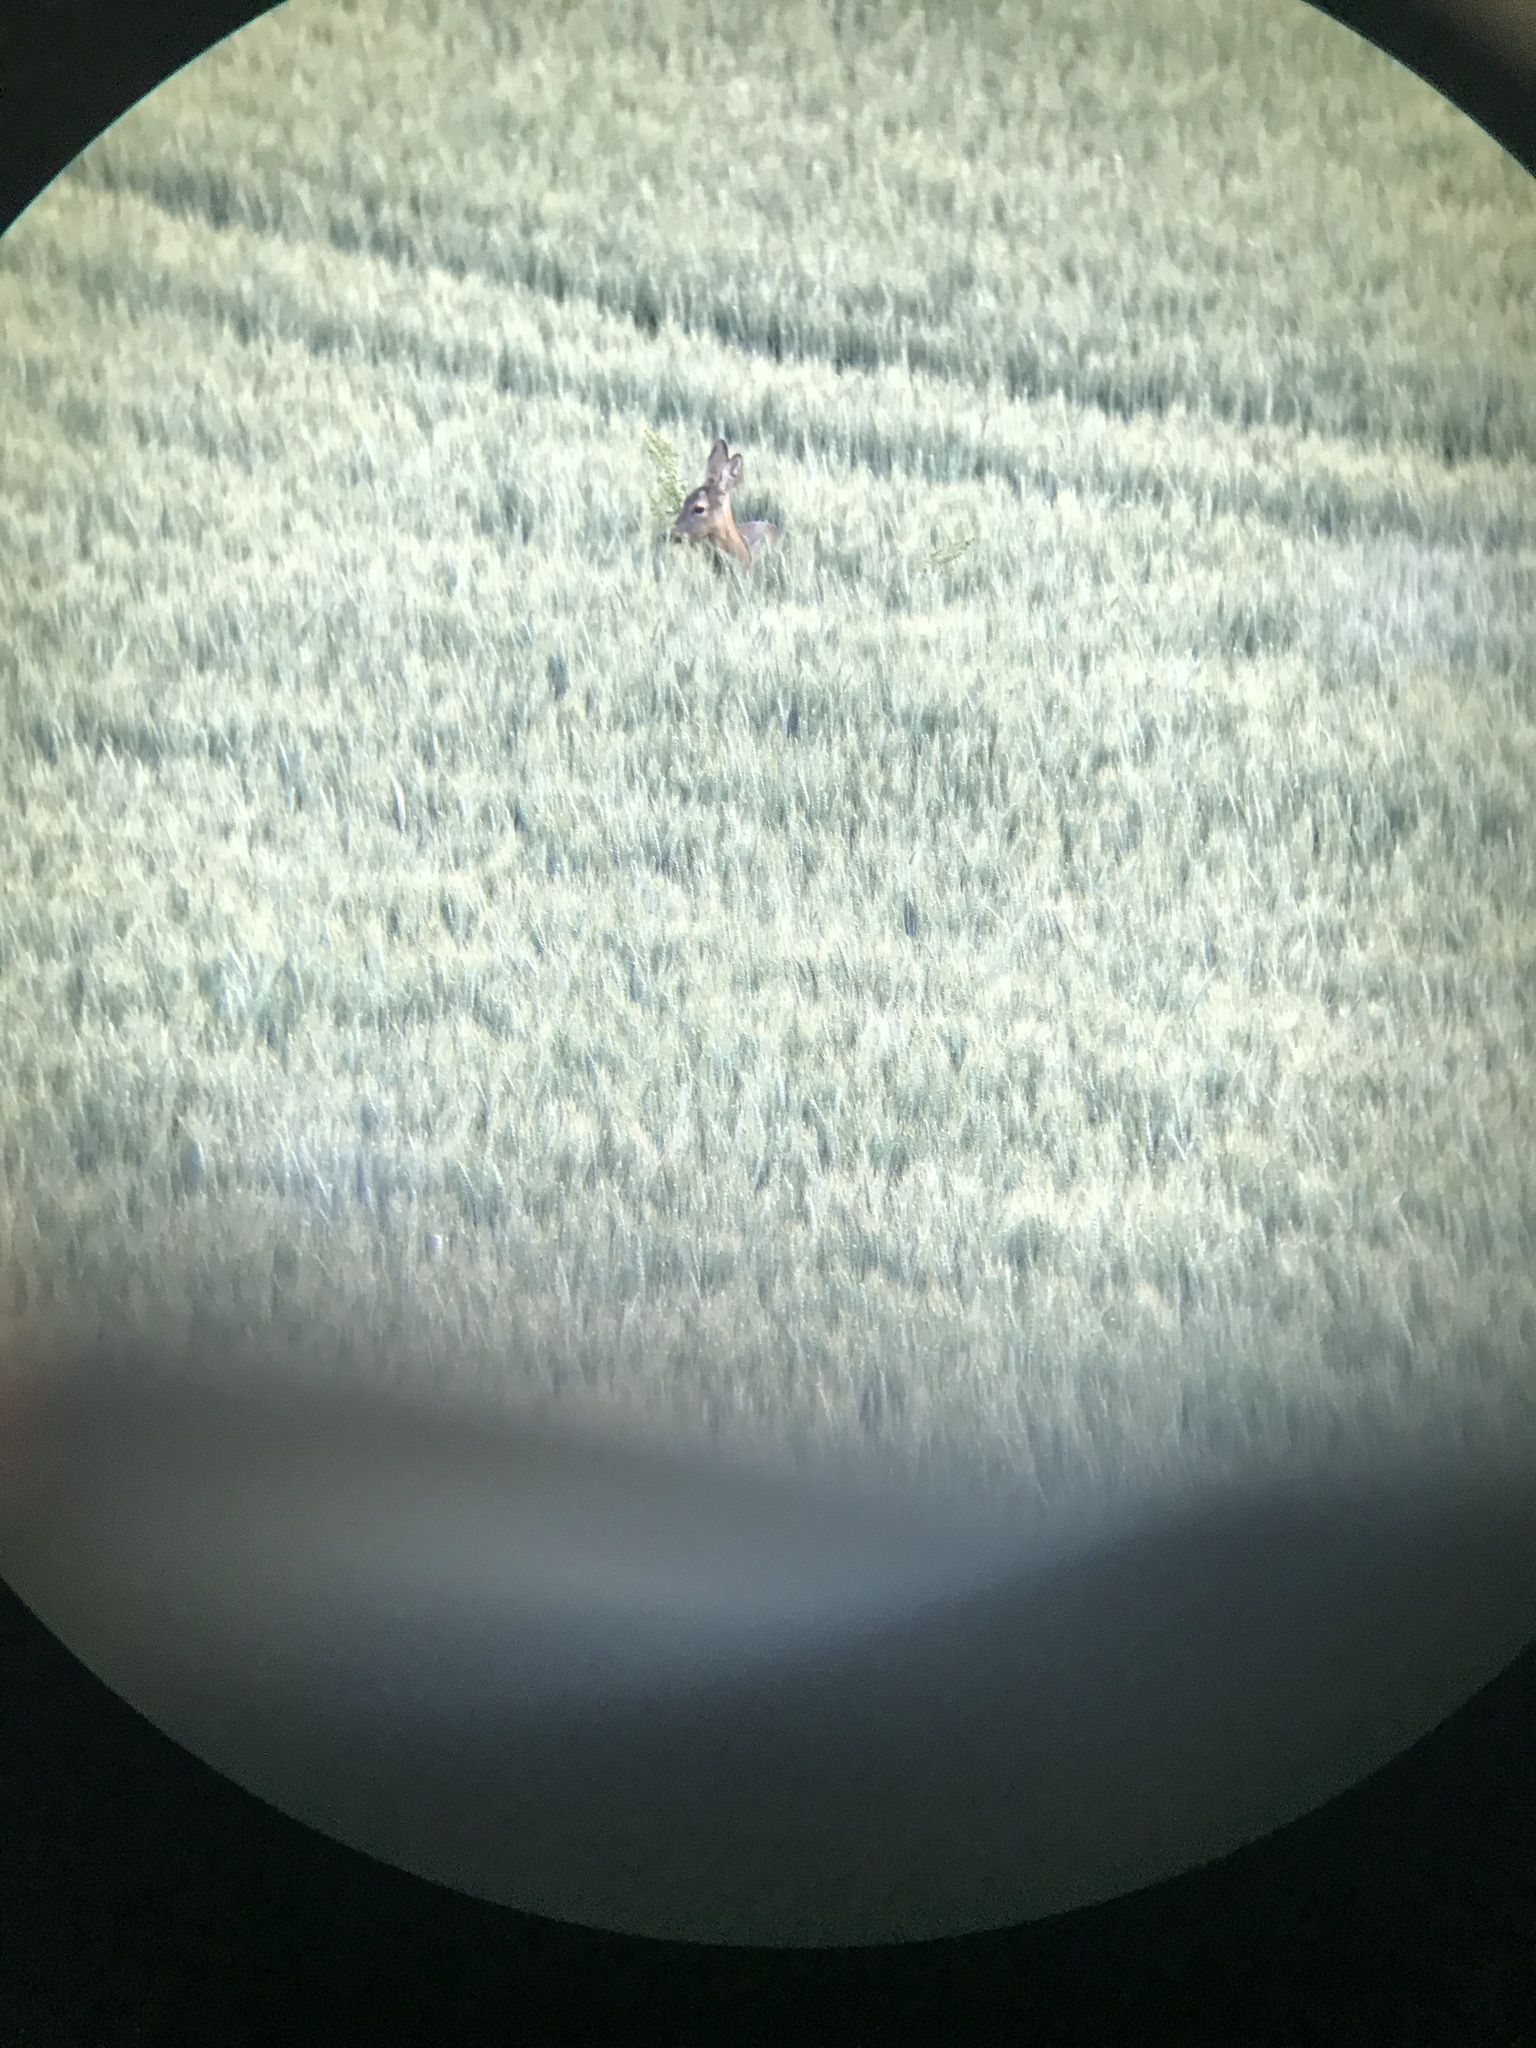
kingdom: Animalia
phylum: Chordata
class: Mammalia
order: Artiodactyla
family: Cervidae
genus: Capreolus
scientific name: Capreolus capreolus
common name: Western roe deer
